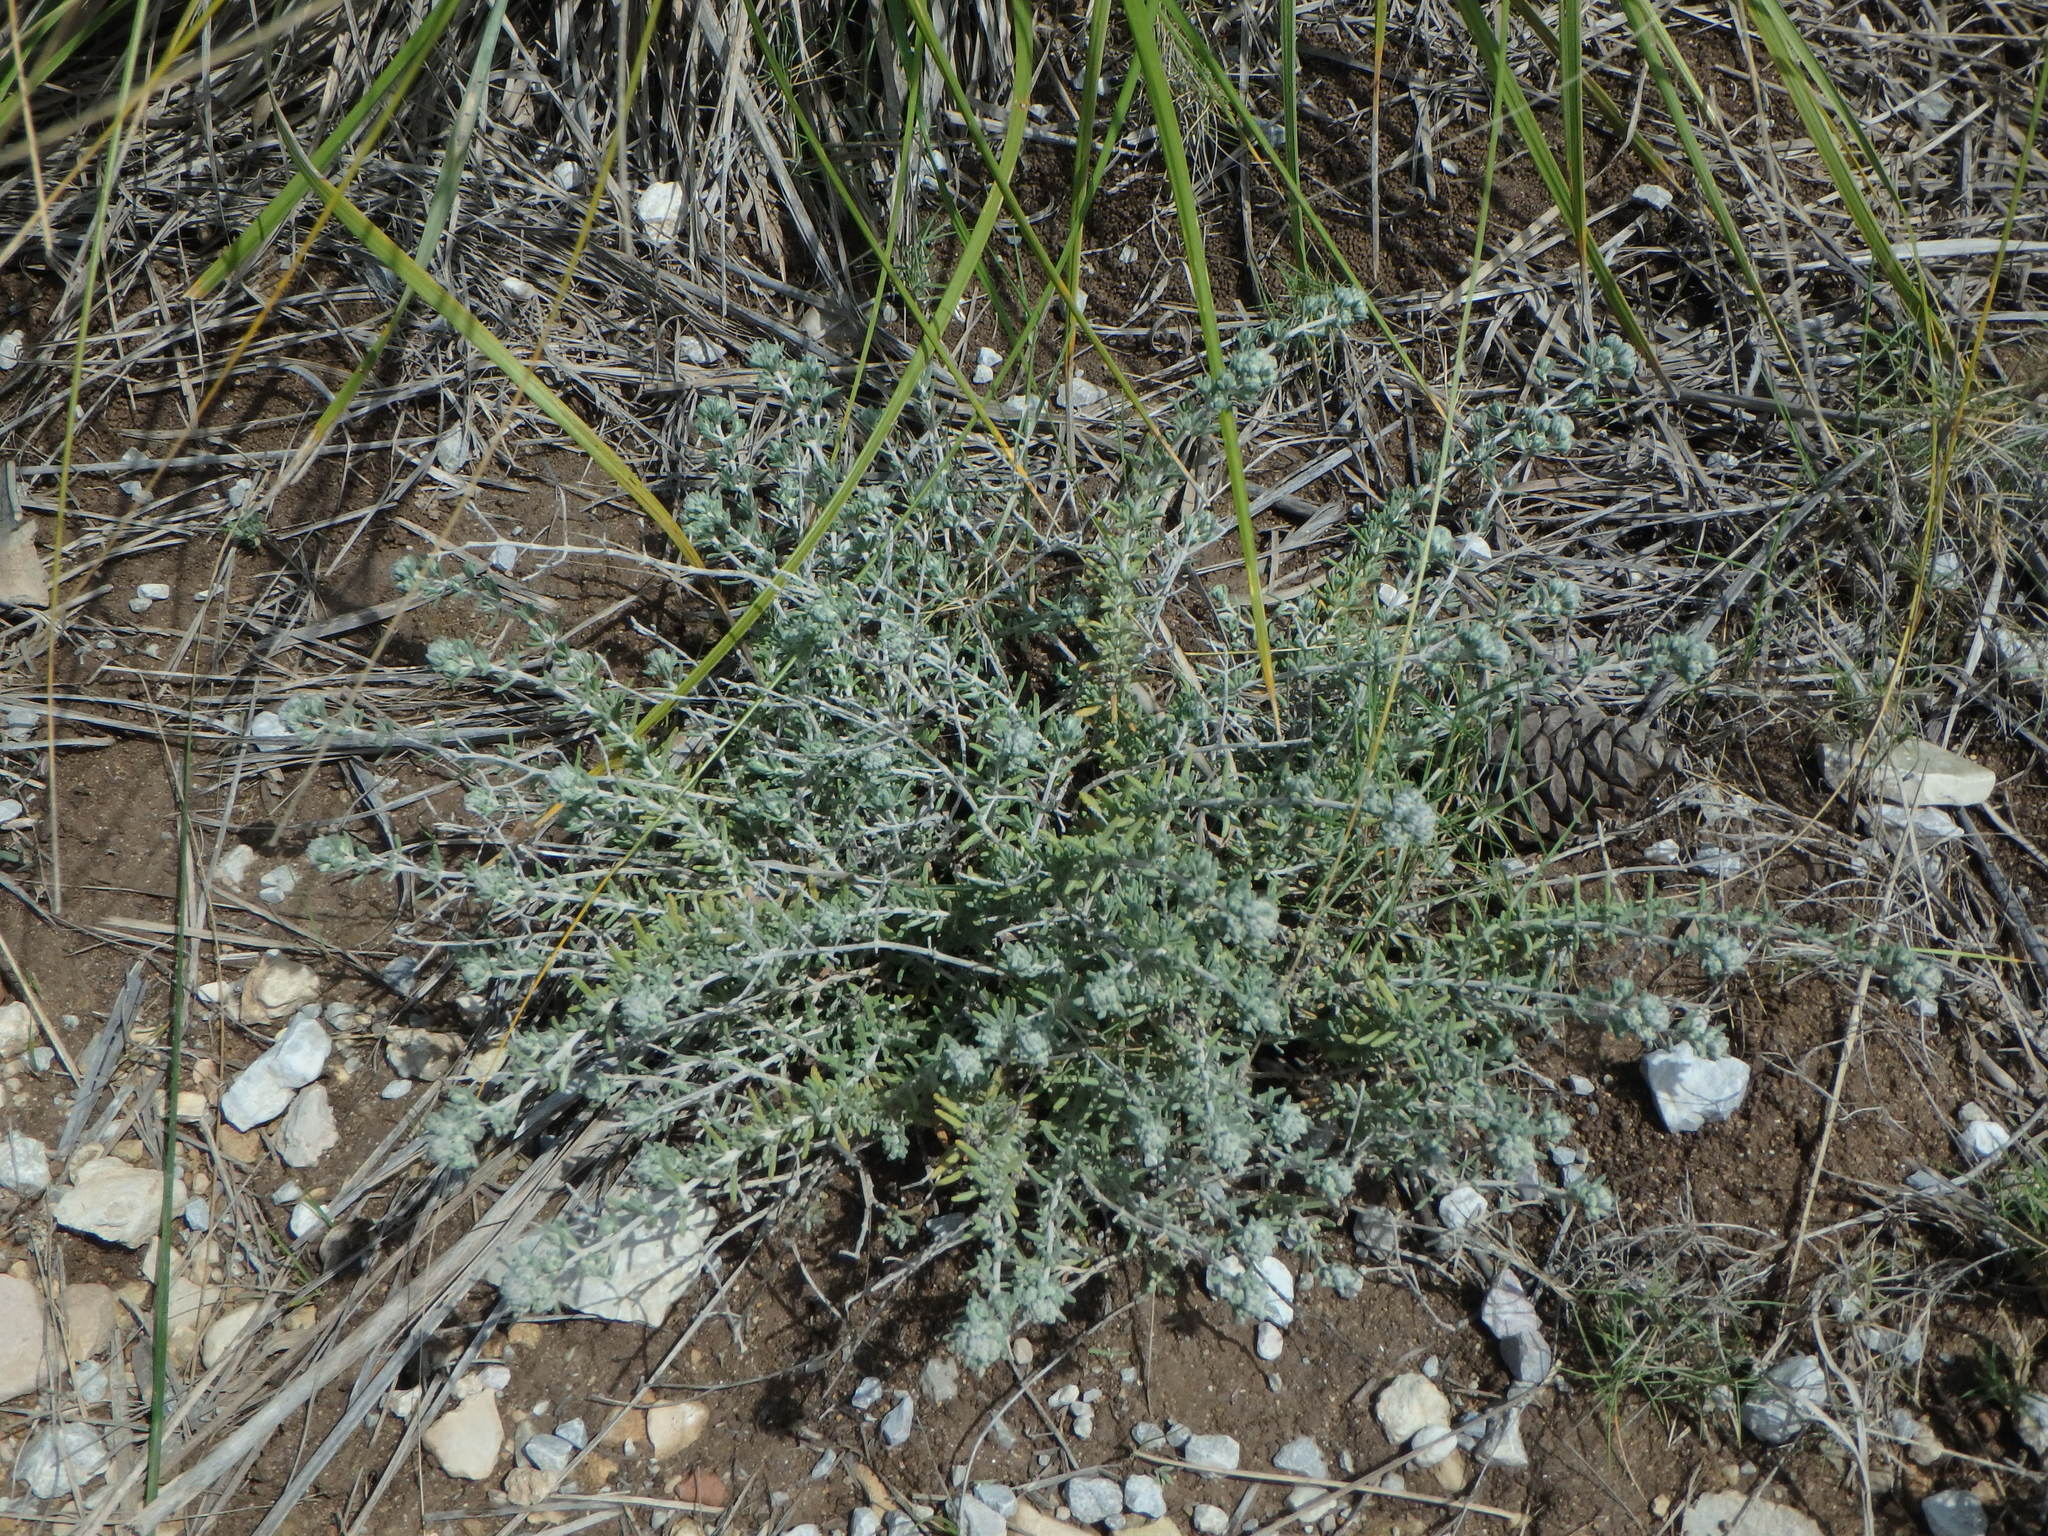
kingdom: Plantae
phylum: Tracheophyta
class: Magnoliopsida
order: Lamiales
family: Lamiaceae
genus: Teucrium
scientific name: Teucrium capitatum
